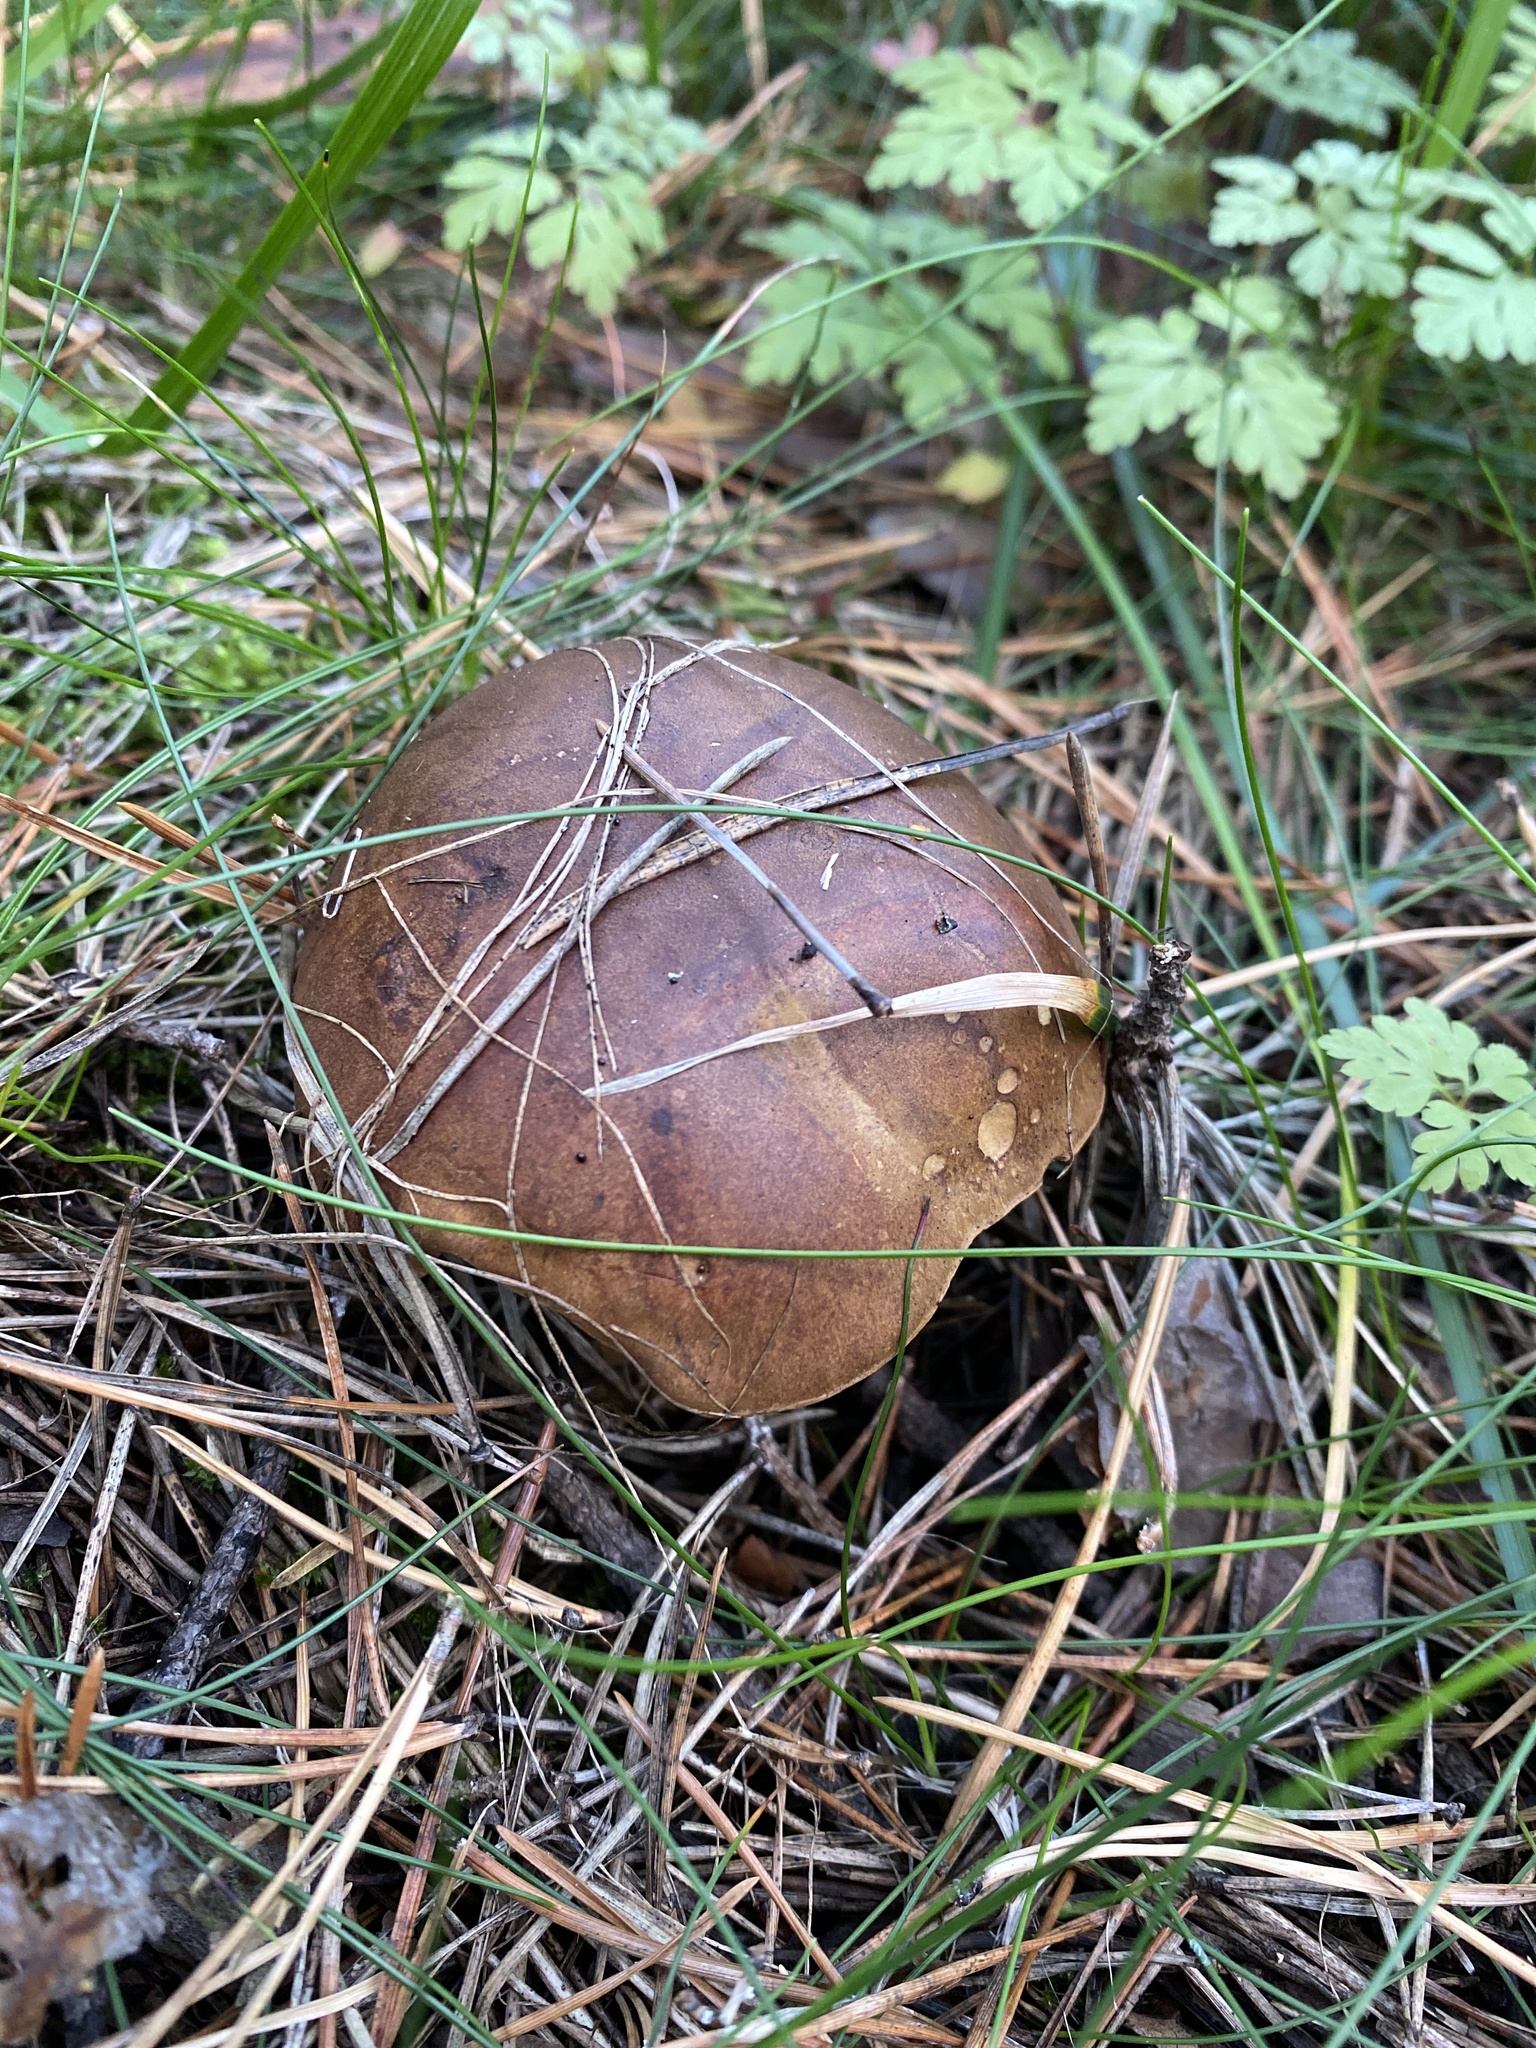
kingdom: Fungi
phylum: Basidiomycota
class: Agaricomycetes
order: Boletales
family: Boletaceae
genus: Imleria
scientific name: Imleria badia
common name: Bay bolete
